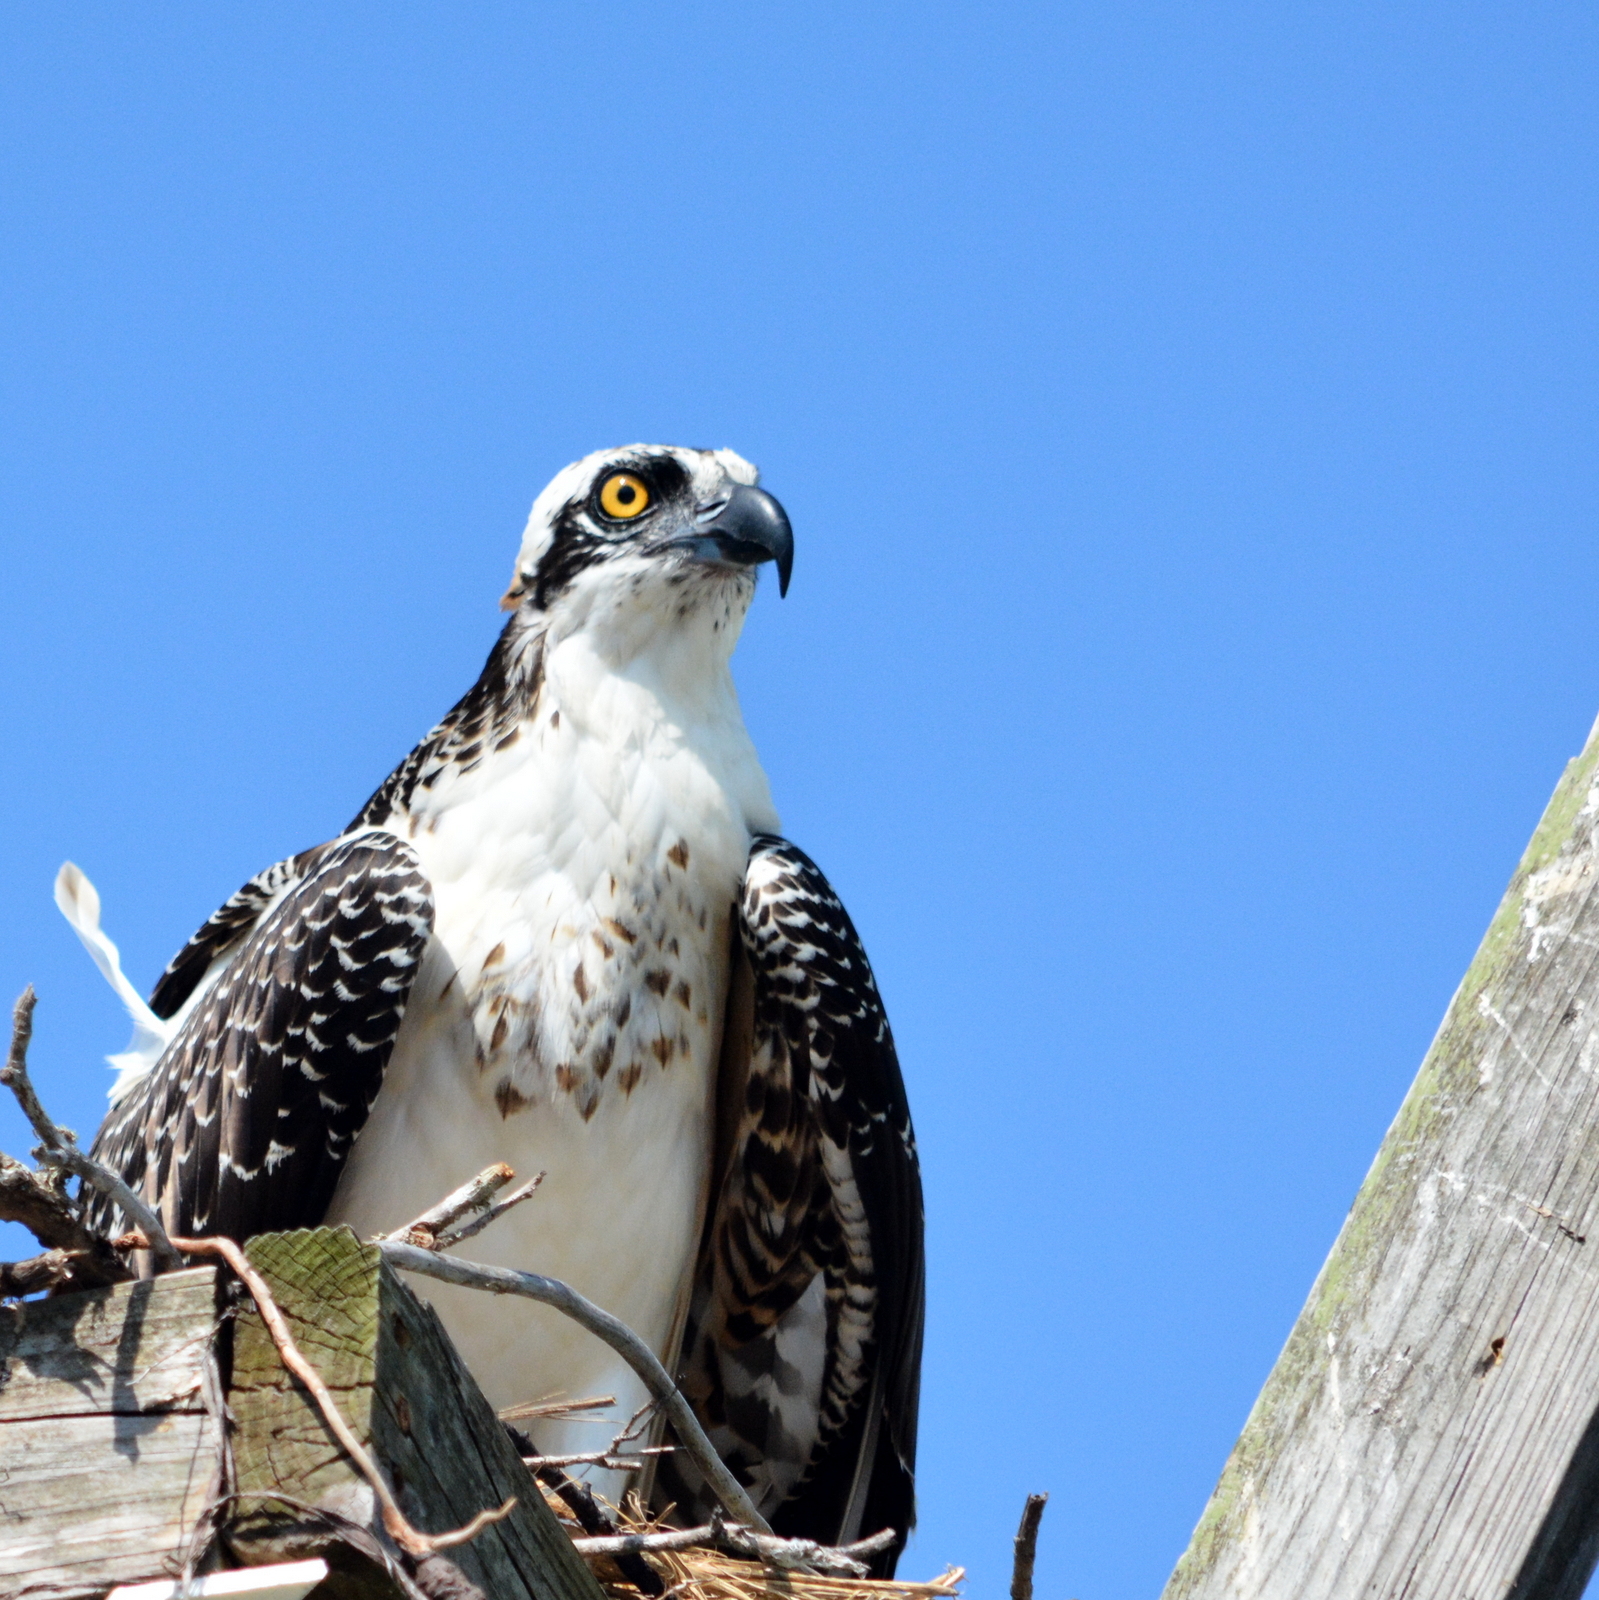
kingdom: Animalia
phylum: Chordata
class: Aves
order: Accipitriformes
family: Pandionidae
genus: Pandion
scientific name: Pandion haliaetus
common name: Osprey
